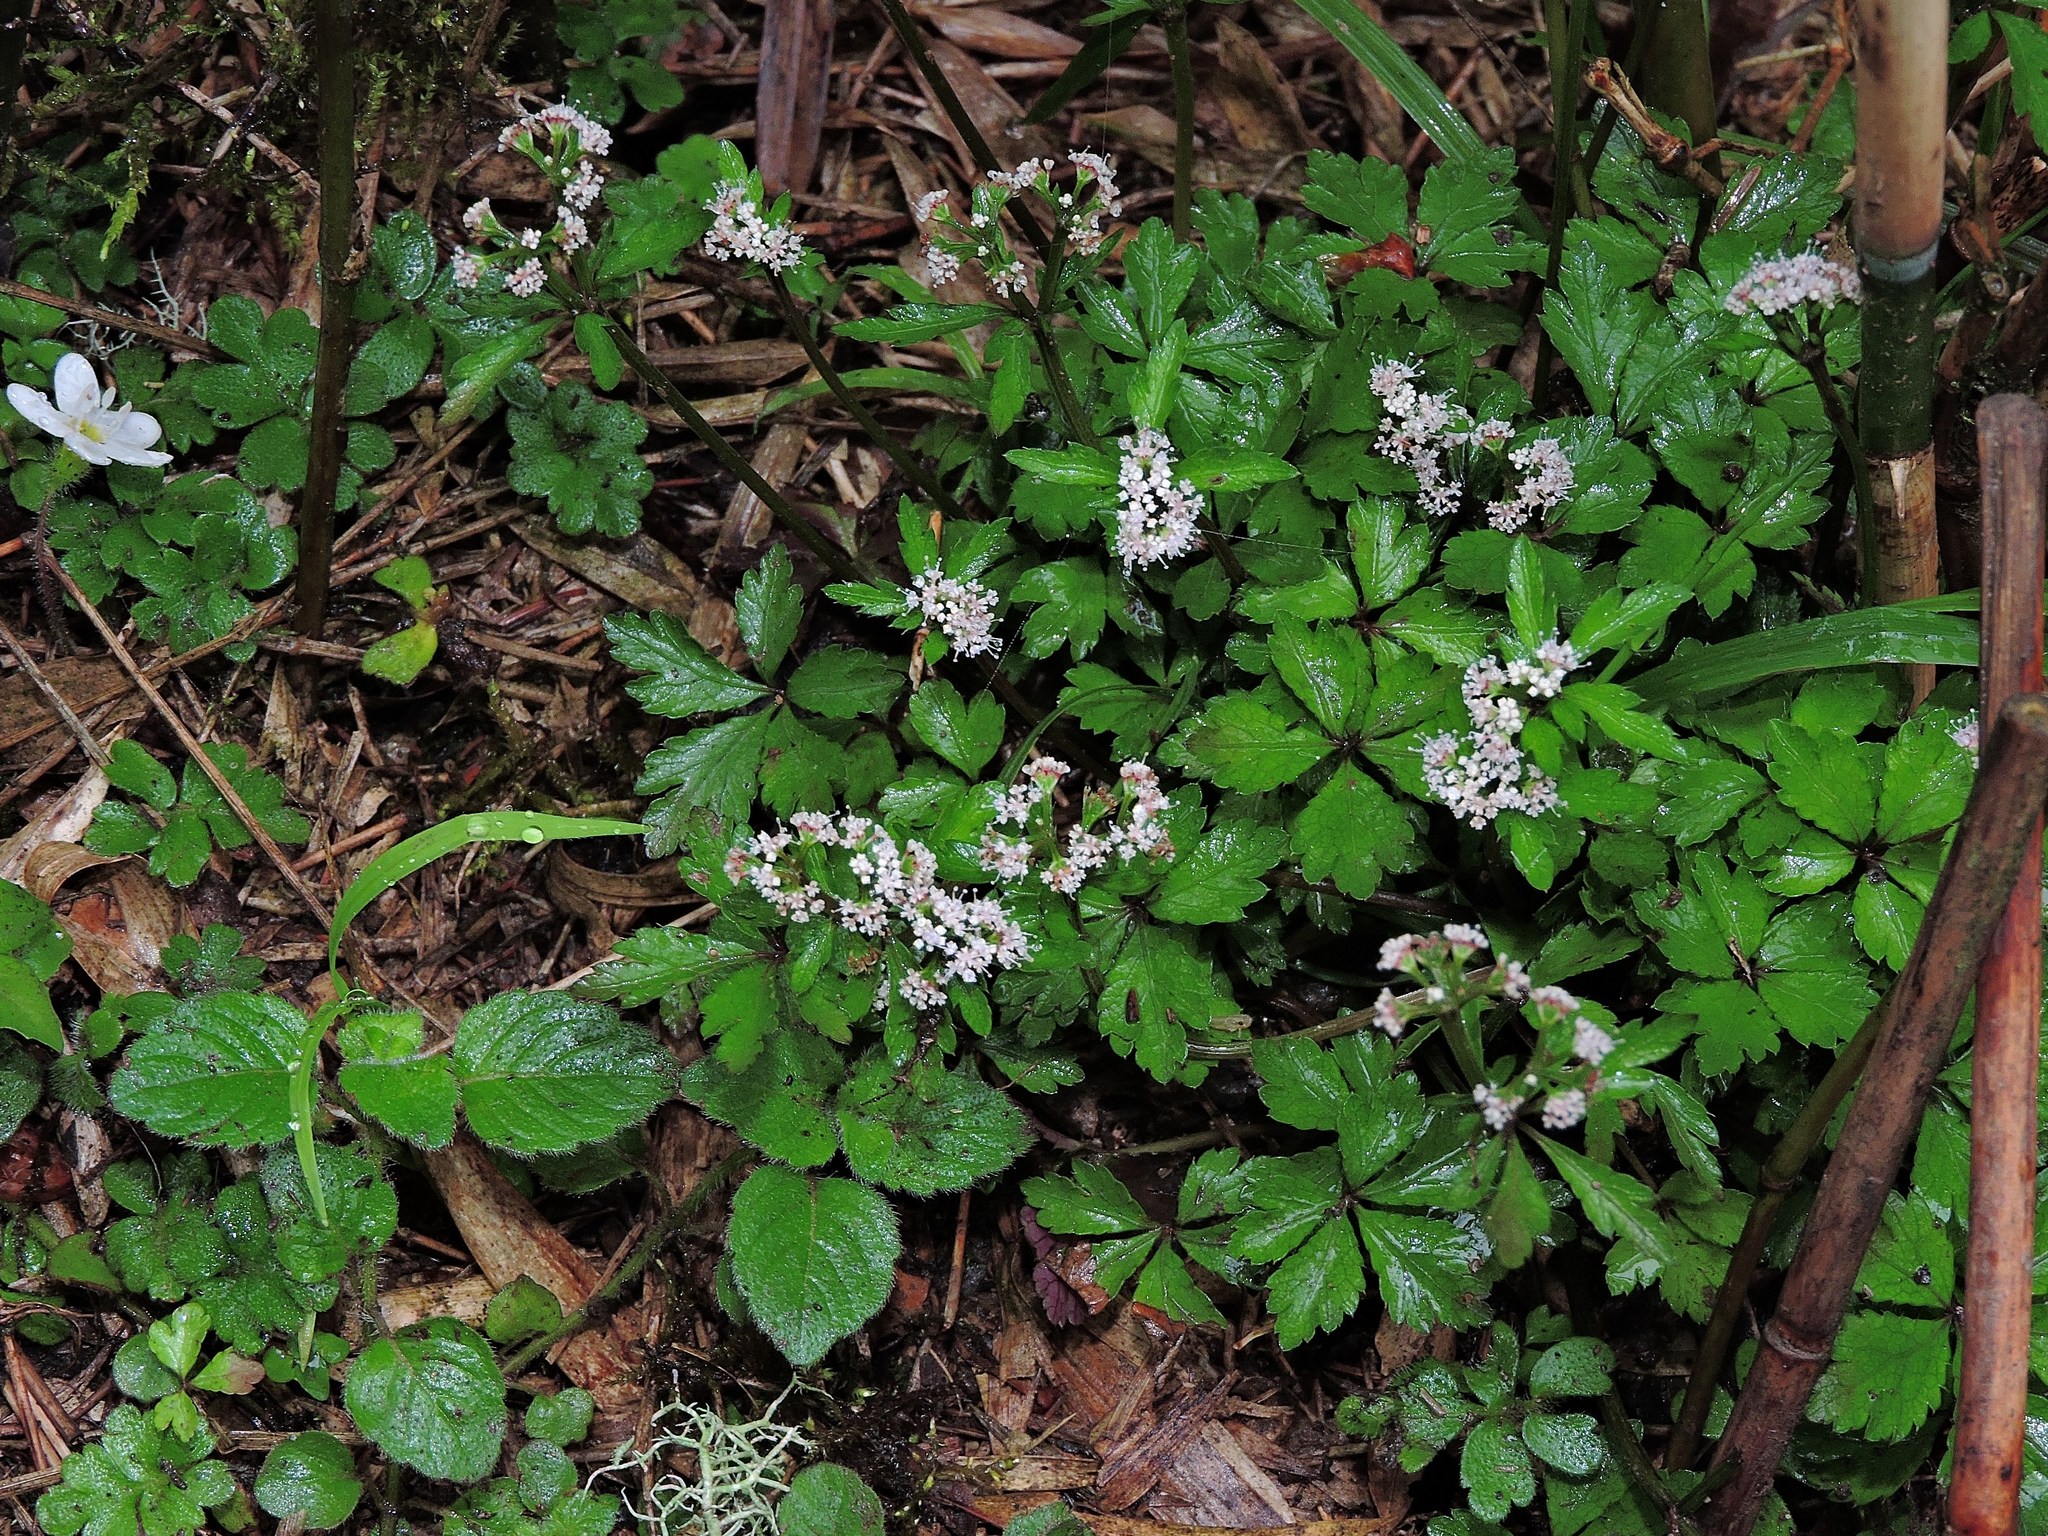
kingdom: Plantae
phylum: Tracheophyta
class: Magnoliopsida
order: Apiales
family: Apiaceae
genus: Sanicula
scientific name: Sanicula petagnioides
